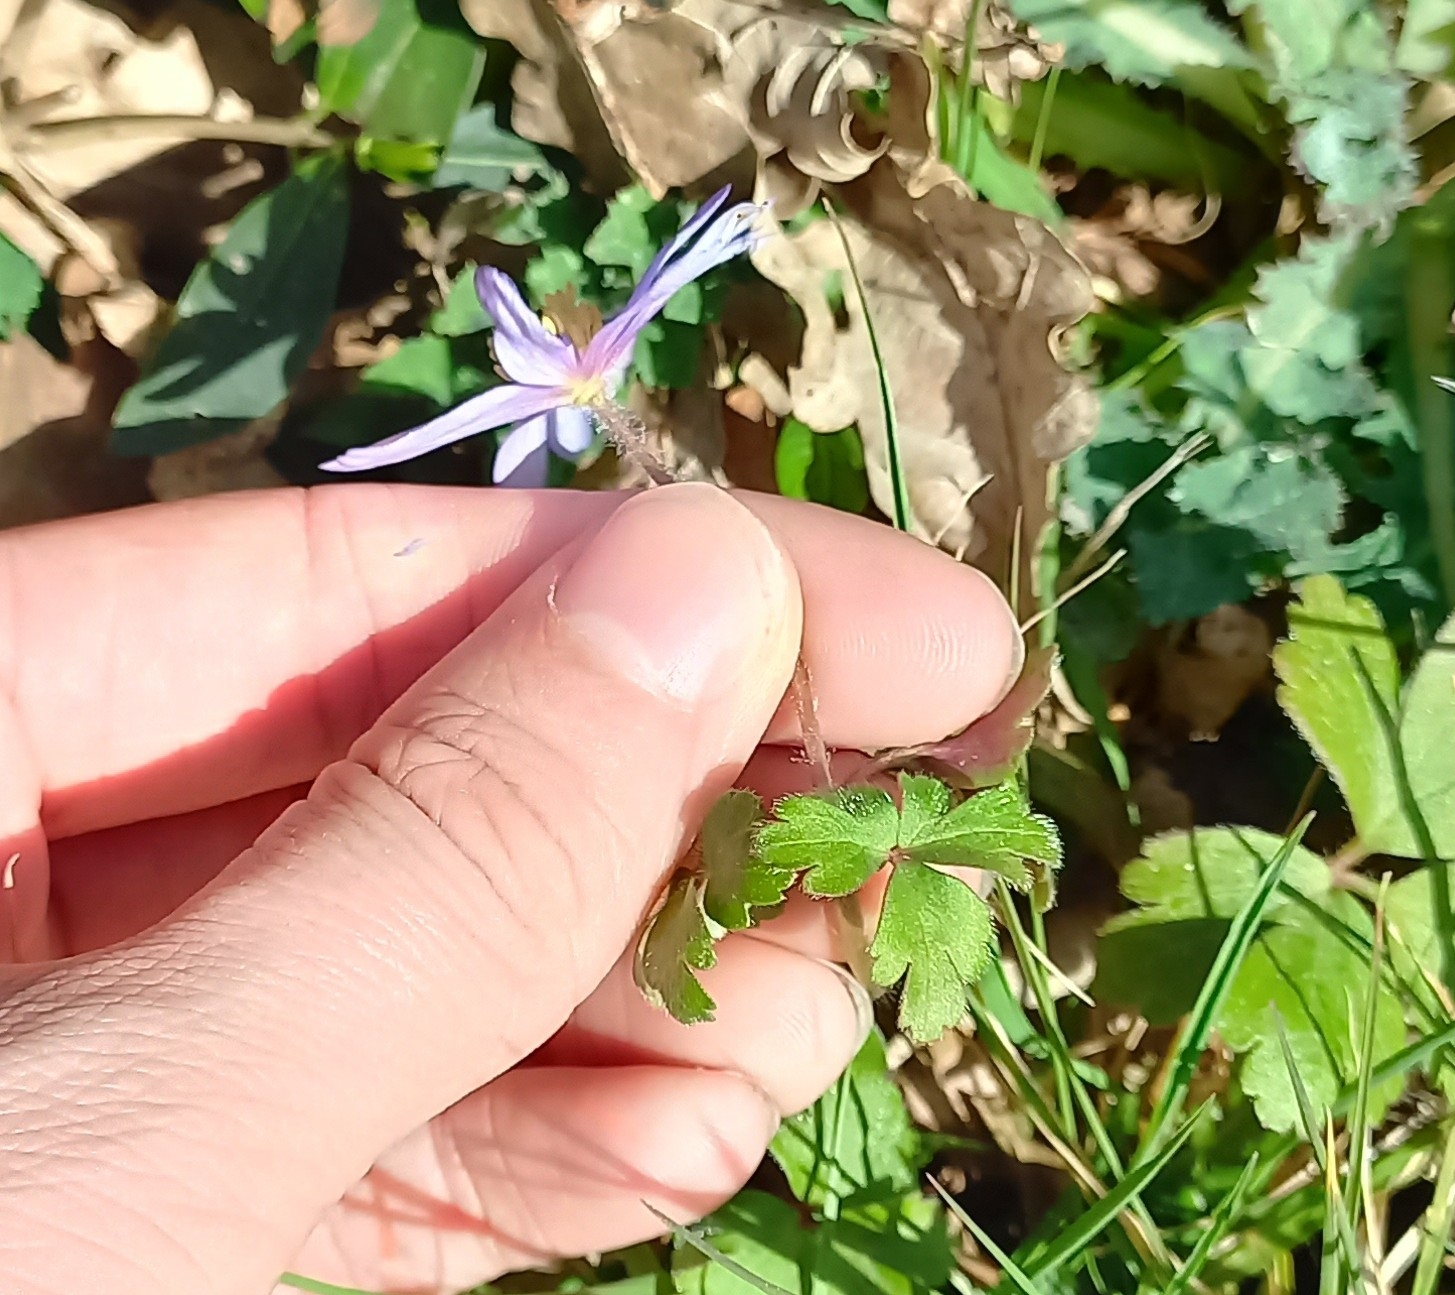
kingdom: Plantae
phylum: Tracheophyta
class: Magnoliopsida
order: Ranunculales
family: Ranunculaceae
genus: Anemone
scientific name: Anemone blanda
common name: Balkan anemone
